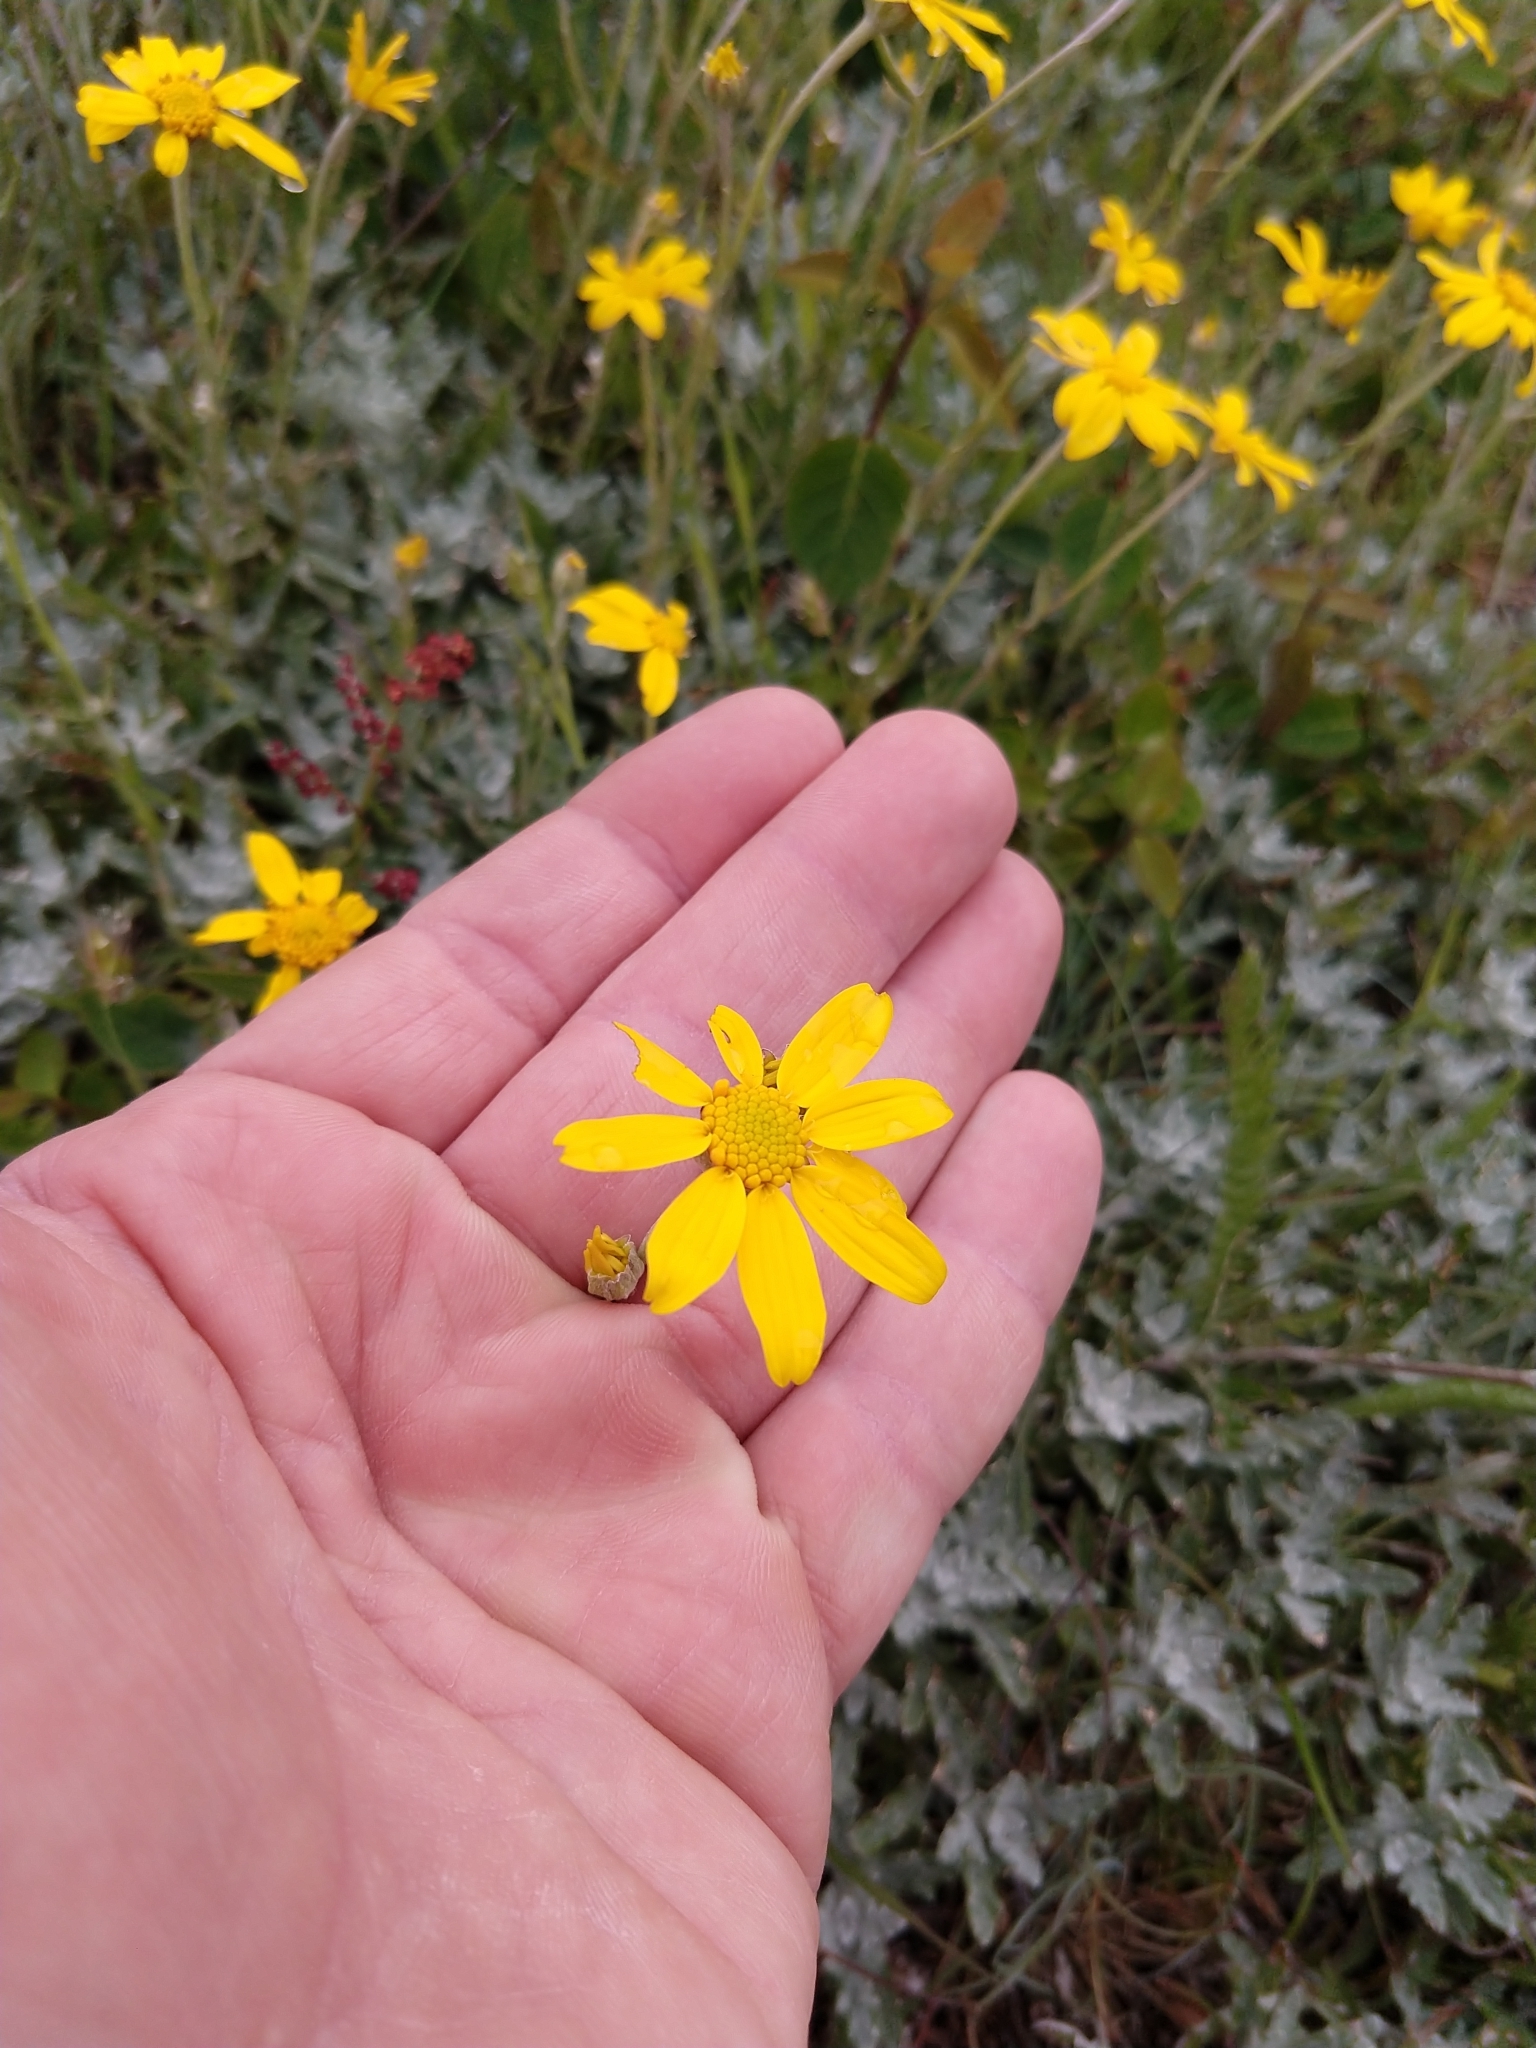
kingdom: Plantae
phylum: Tracheophyta
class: Magnoliopsida
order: Asterales
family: Asteraceae
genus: Eriophyllum
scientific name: Eriophyllum lanatum
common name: Common woolly-sunflower
